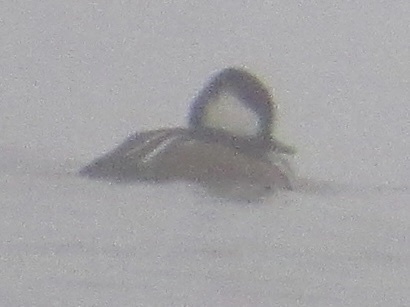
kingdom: Animalia
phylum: Chordata
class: Aves
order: Anseriformes
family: Anatidae
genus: Lophodytes
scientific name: Lophodytes cucullatus
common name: Hooded merganser
